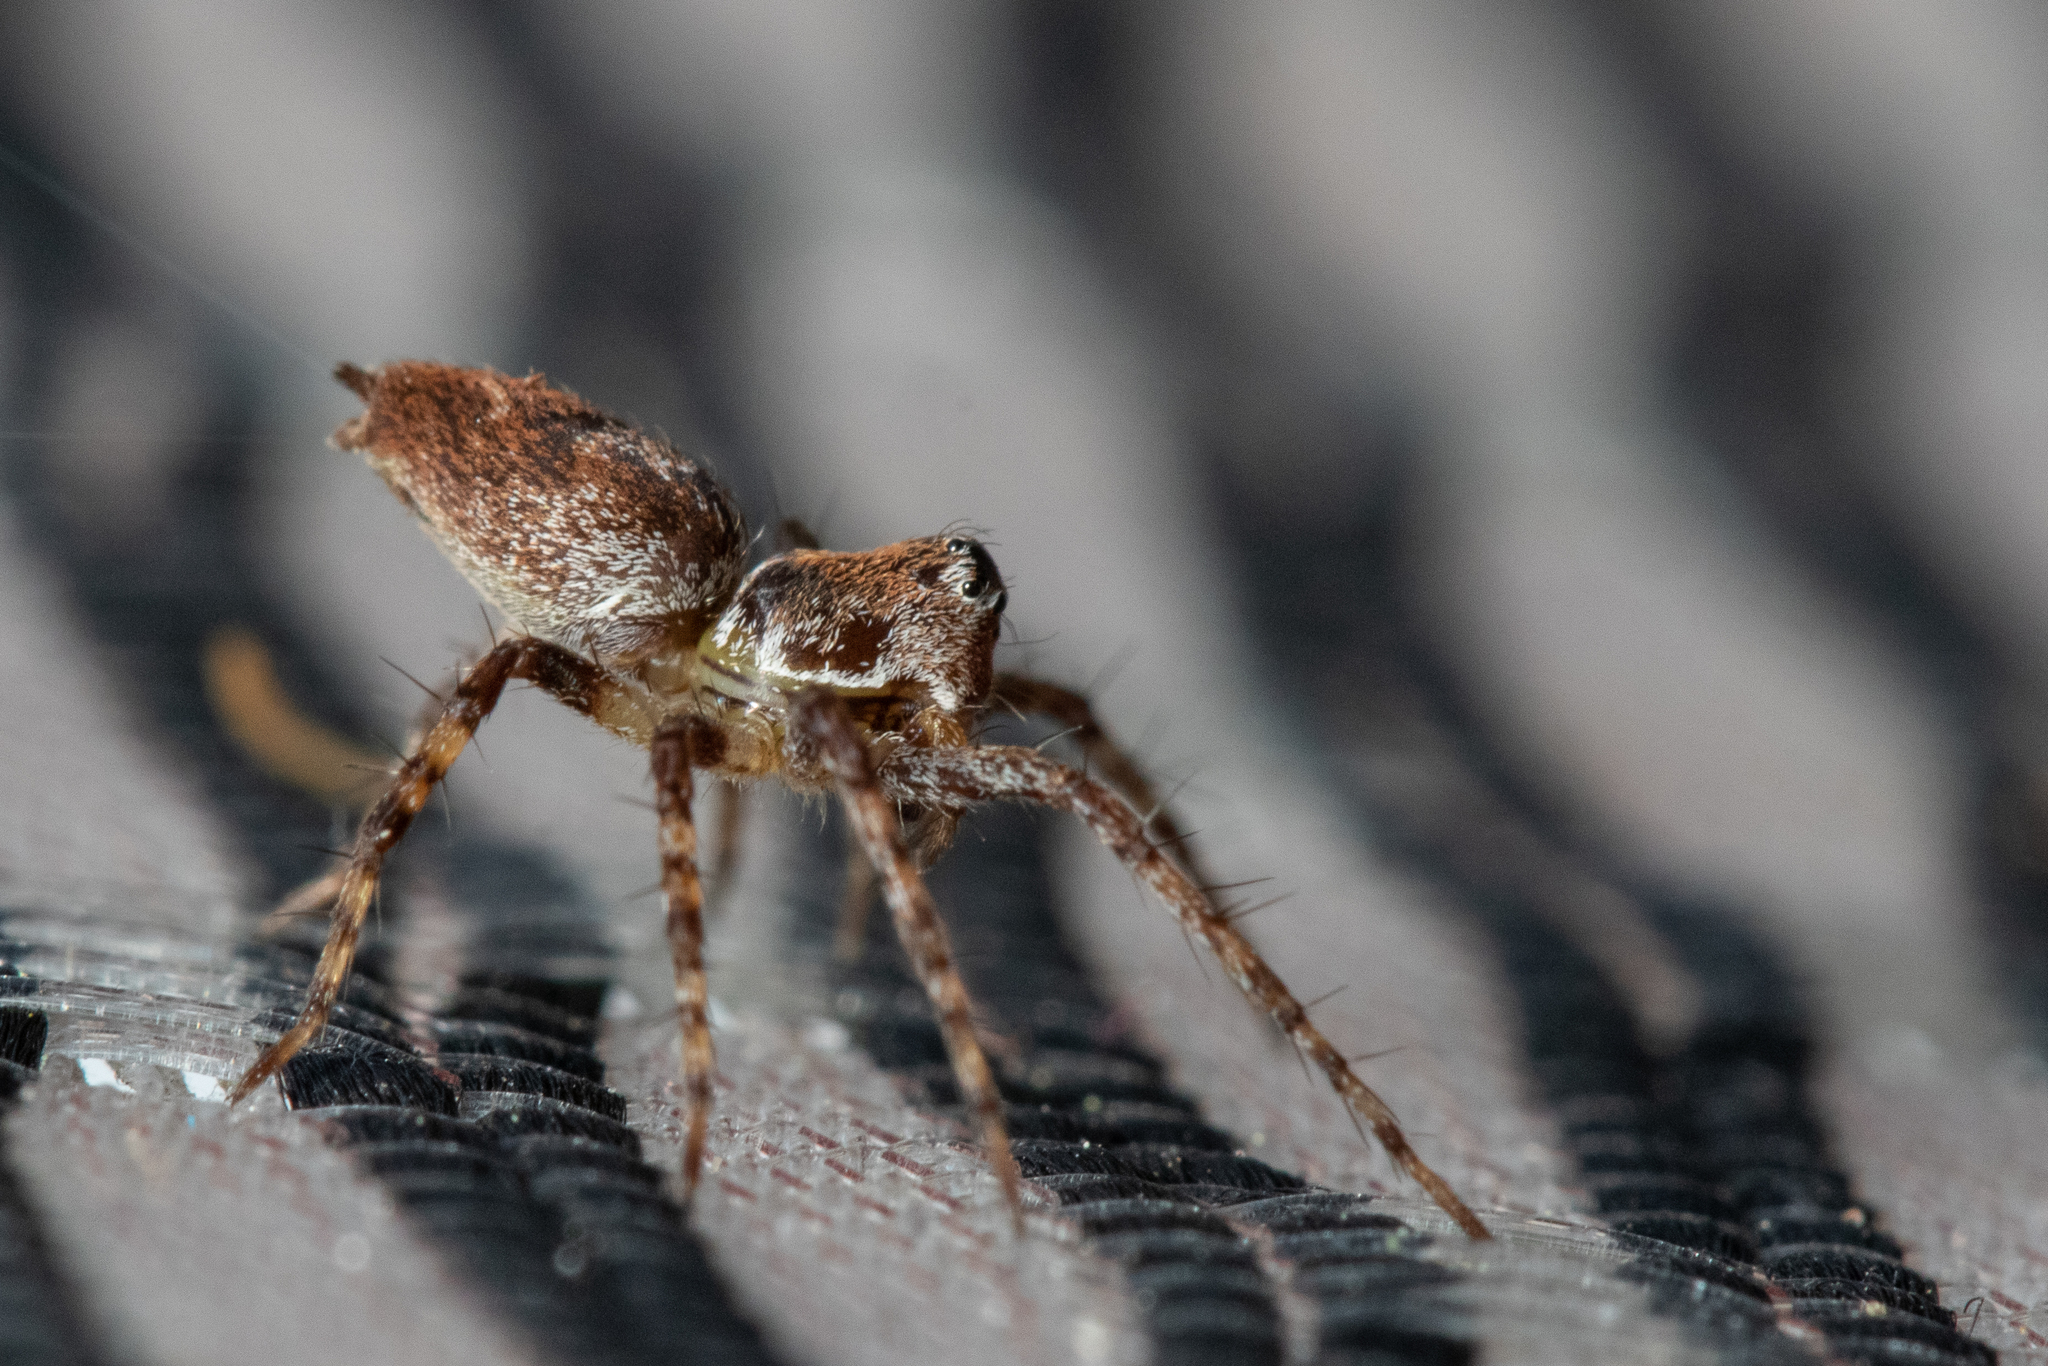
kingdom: Animalia
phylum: Arthropoda
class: Arachnida
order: Araneae
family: Oxyopidae
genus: Oxyopes
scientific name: Oxyopes scalaris
